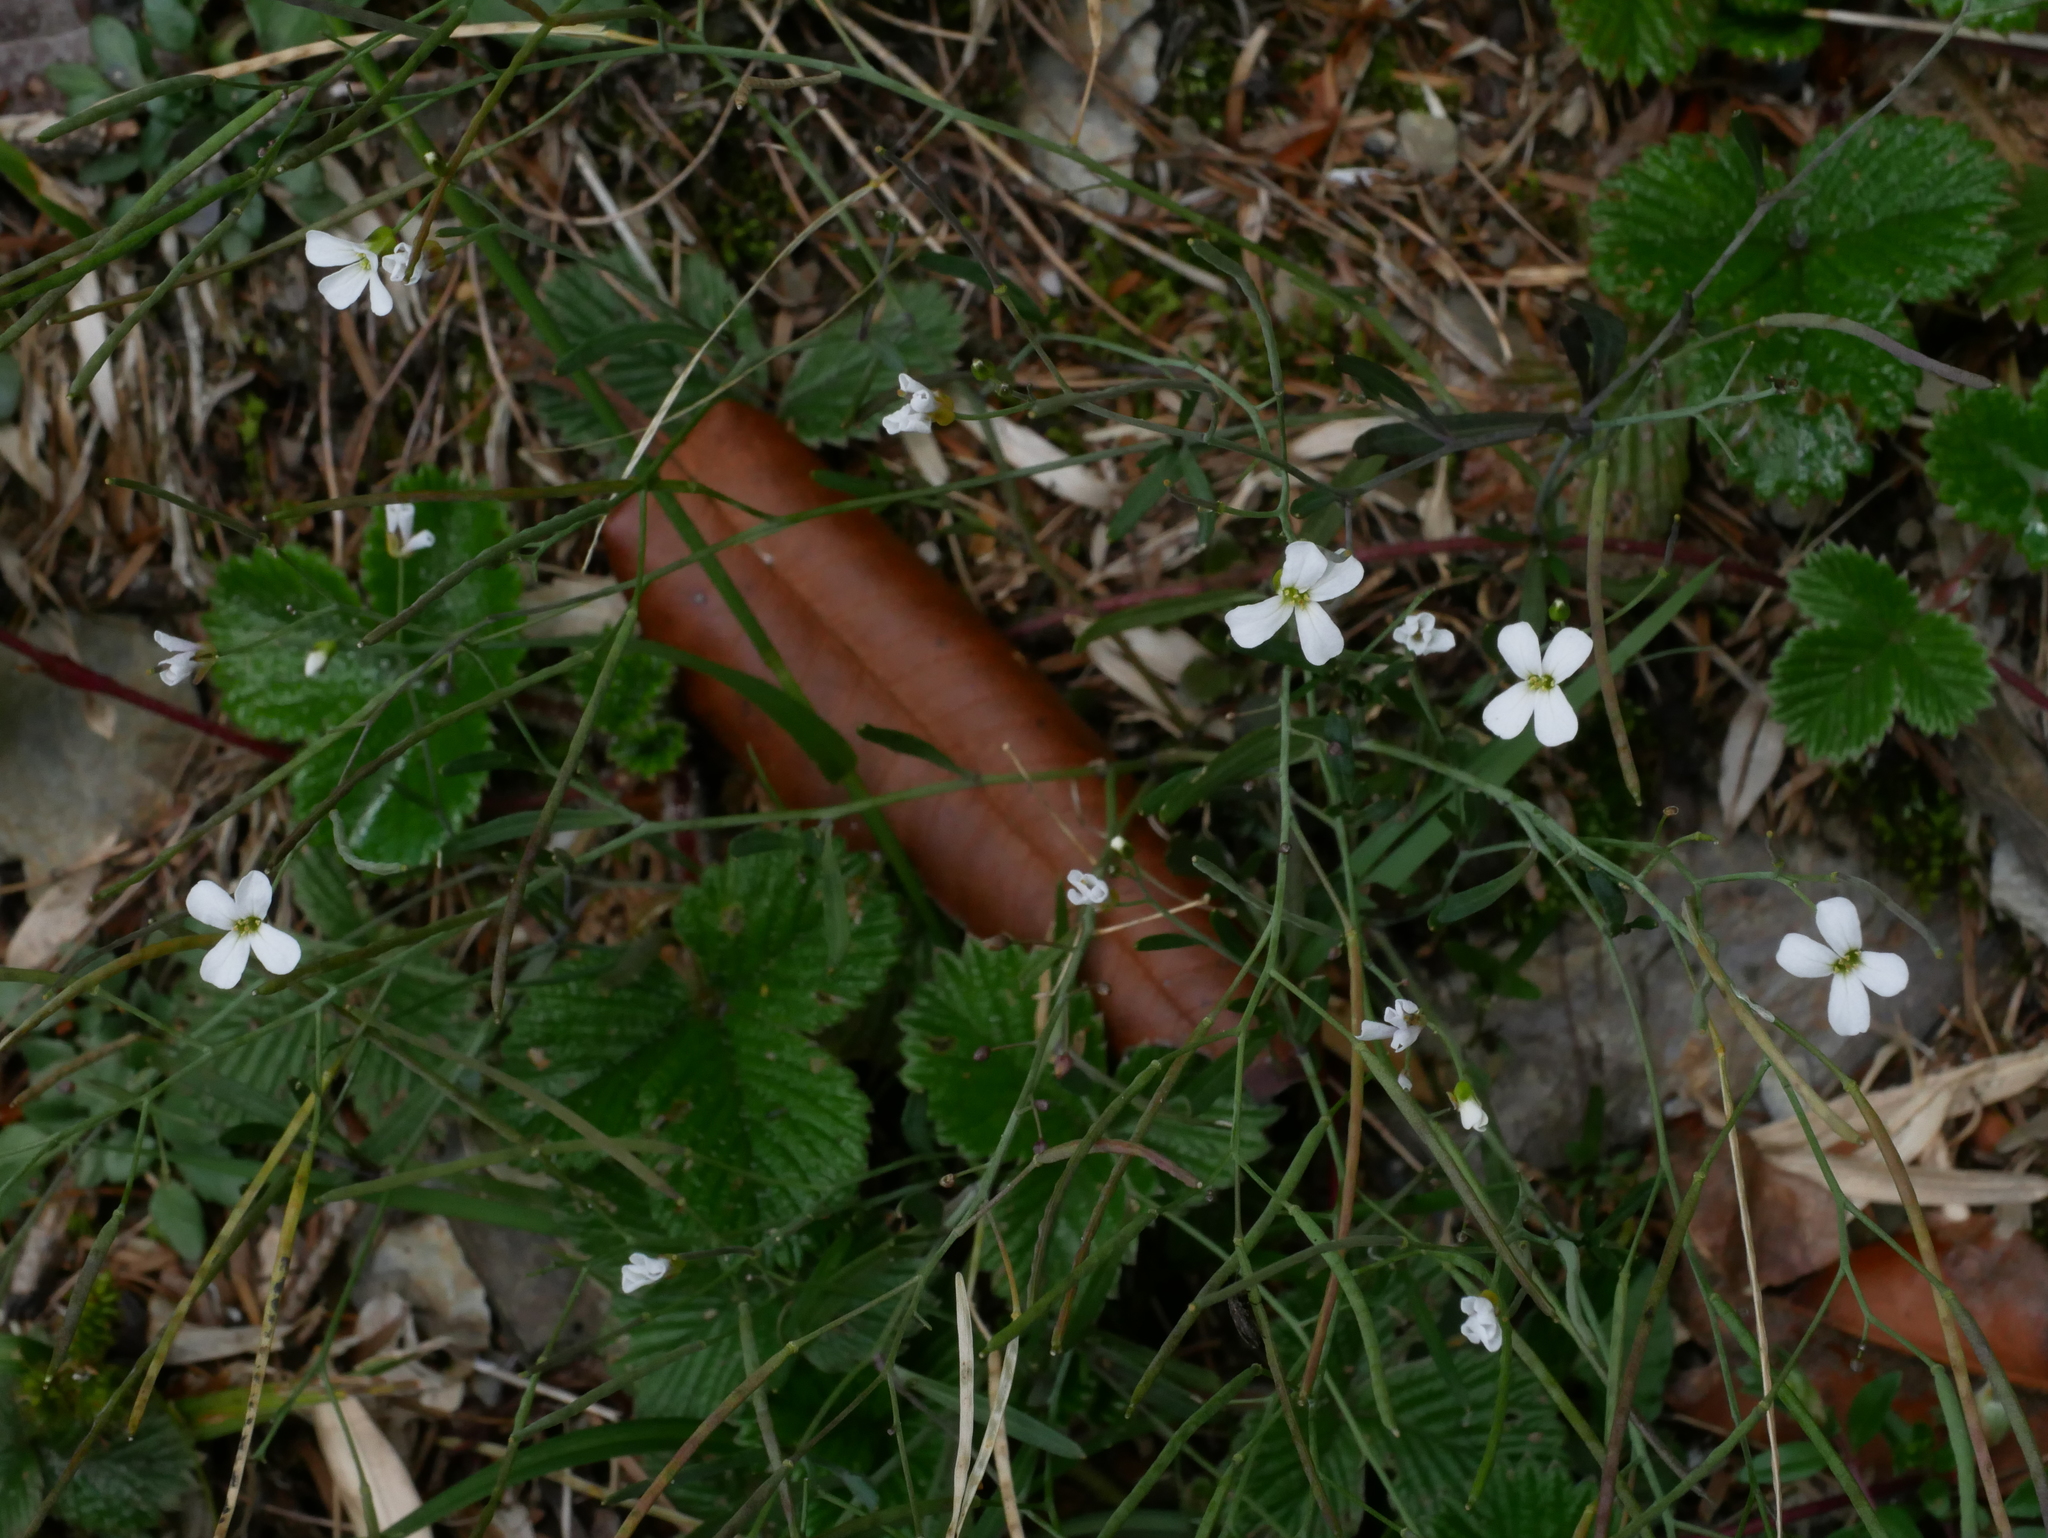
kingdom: Plantae
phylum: Tracheophyta
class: Magnoliopsida
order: Brassicales
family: Brassicaceae
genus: Arabidopsis
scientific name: Arabidopsis lyrata
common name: Lyrate rockcress
